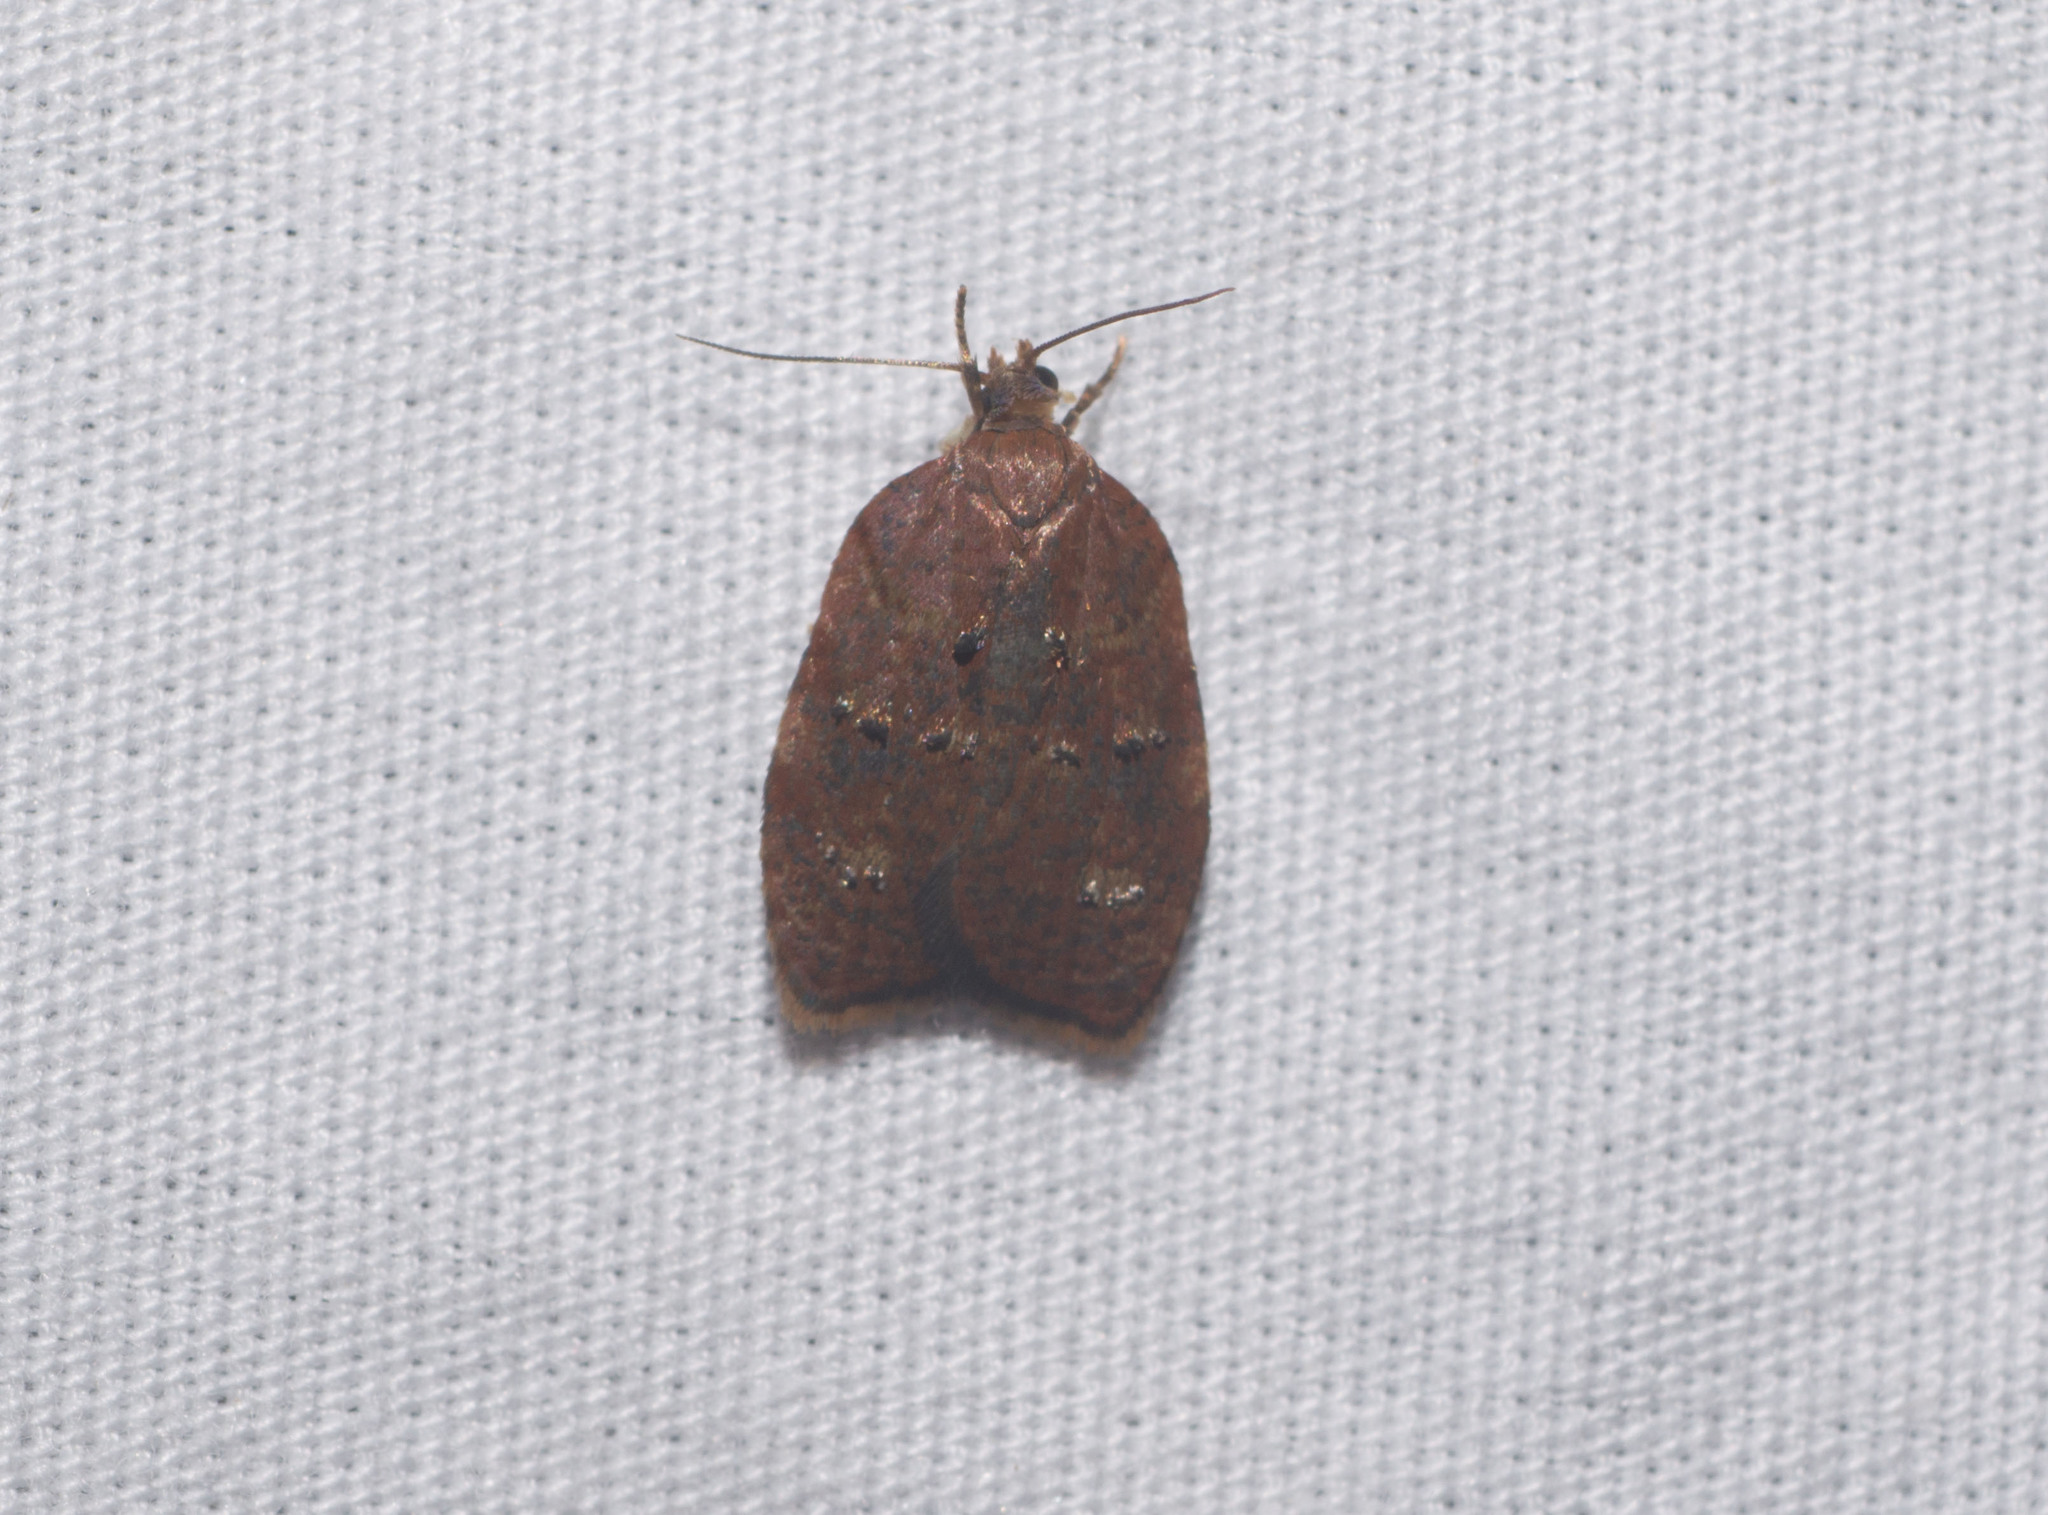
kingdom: Animalia
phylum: Arthropoda
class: Insecta
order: Lepidoptera
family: Tortricidae
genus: Acleris
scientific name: Acleris zimmermani
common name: Tortricid moth
